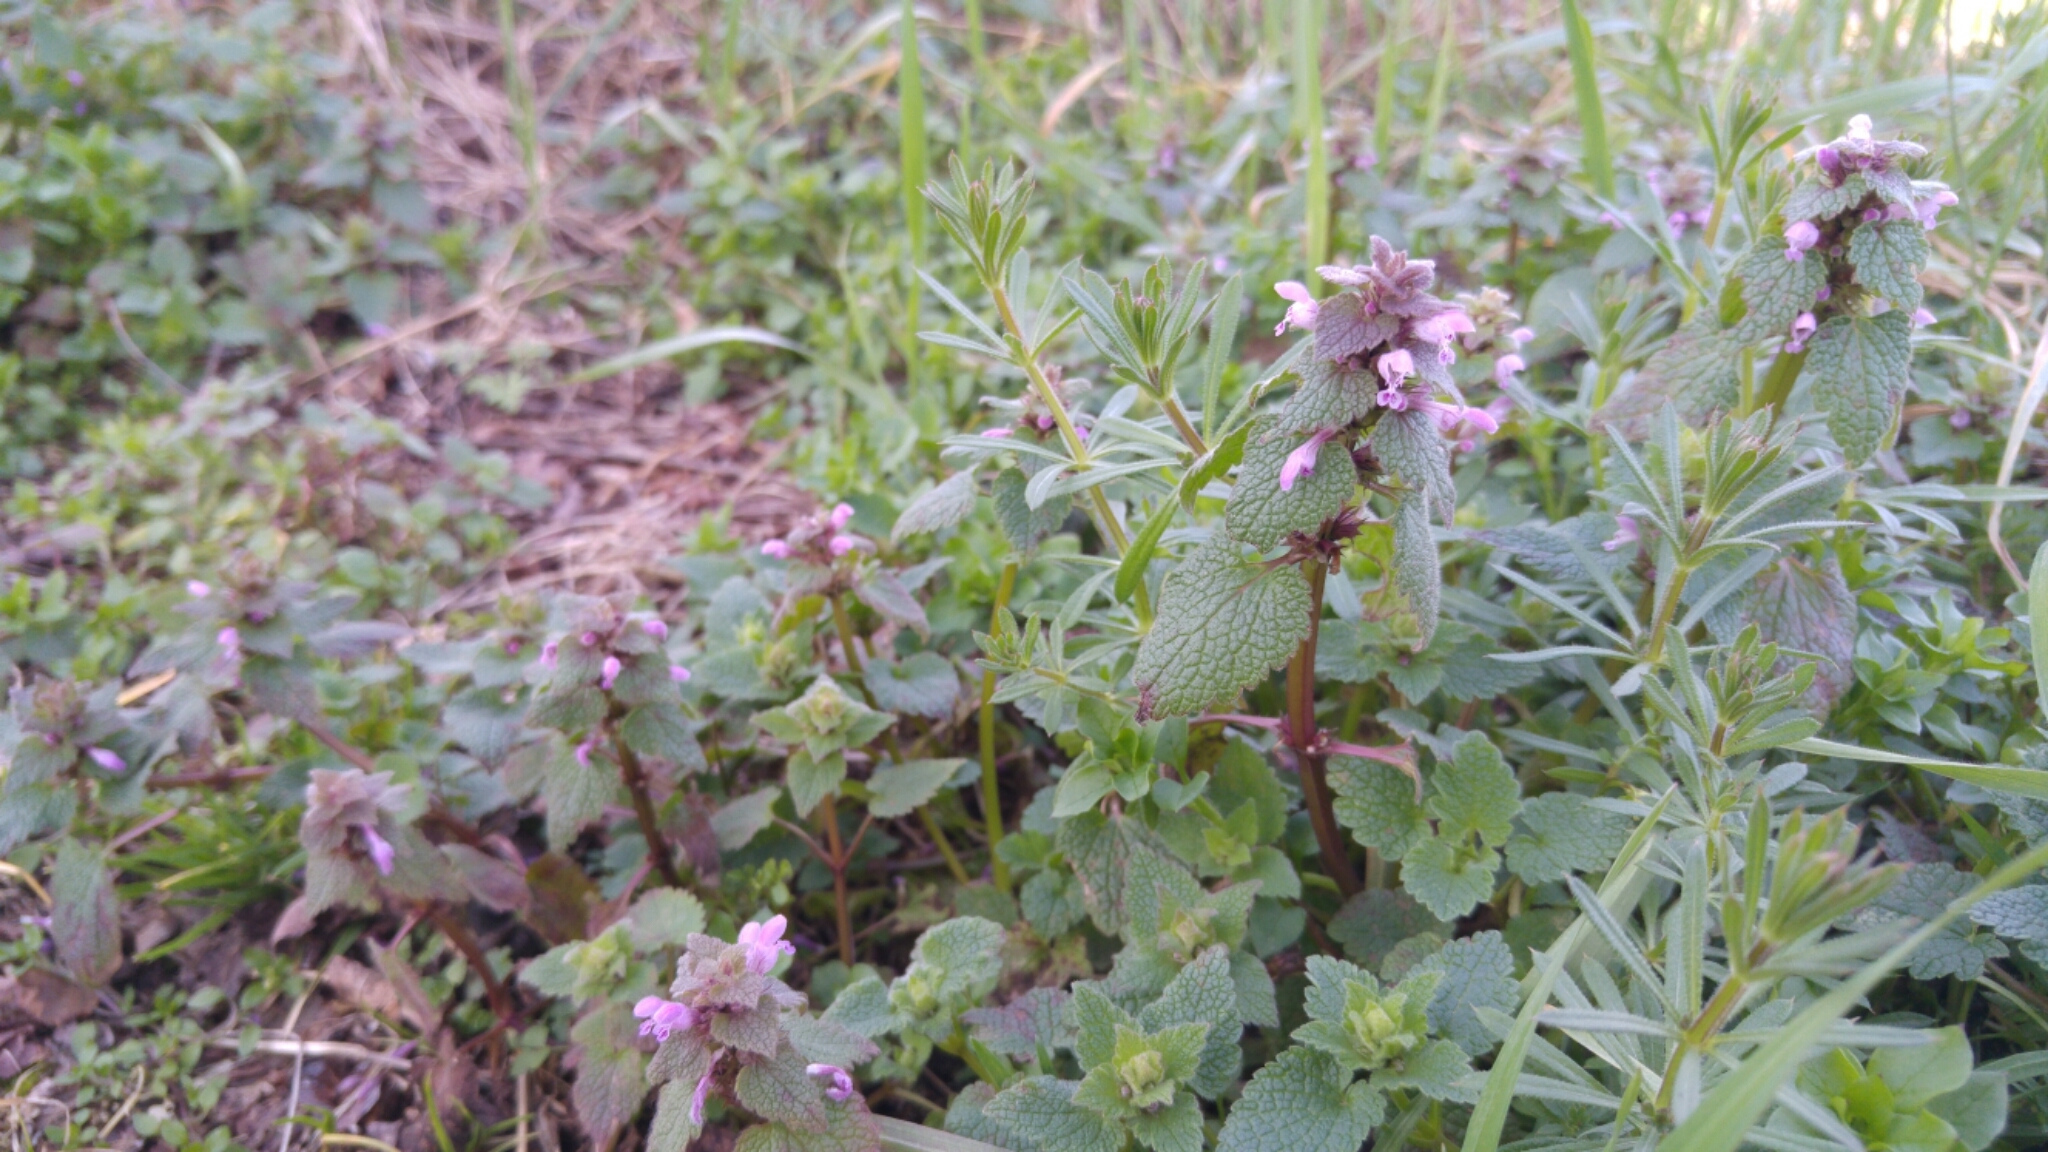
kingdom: Plantae
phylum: Tracheophyta
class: Magnoliopsida
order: Lamiales
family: Lamiaceae
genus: Lamium
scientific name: Lamium purpureum
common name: Red dead-nettle
